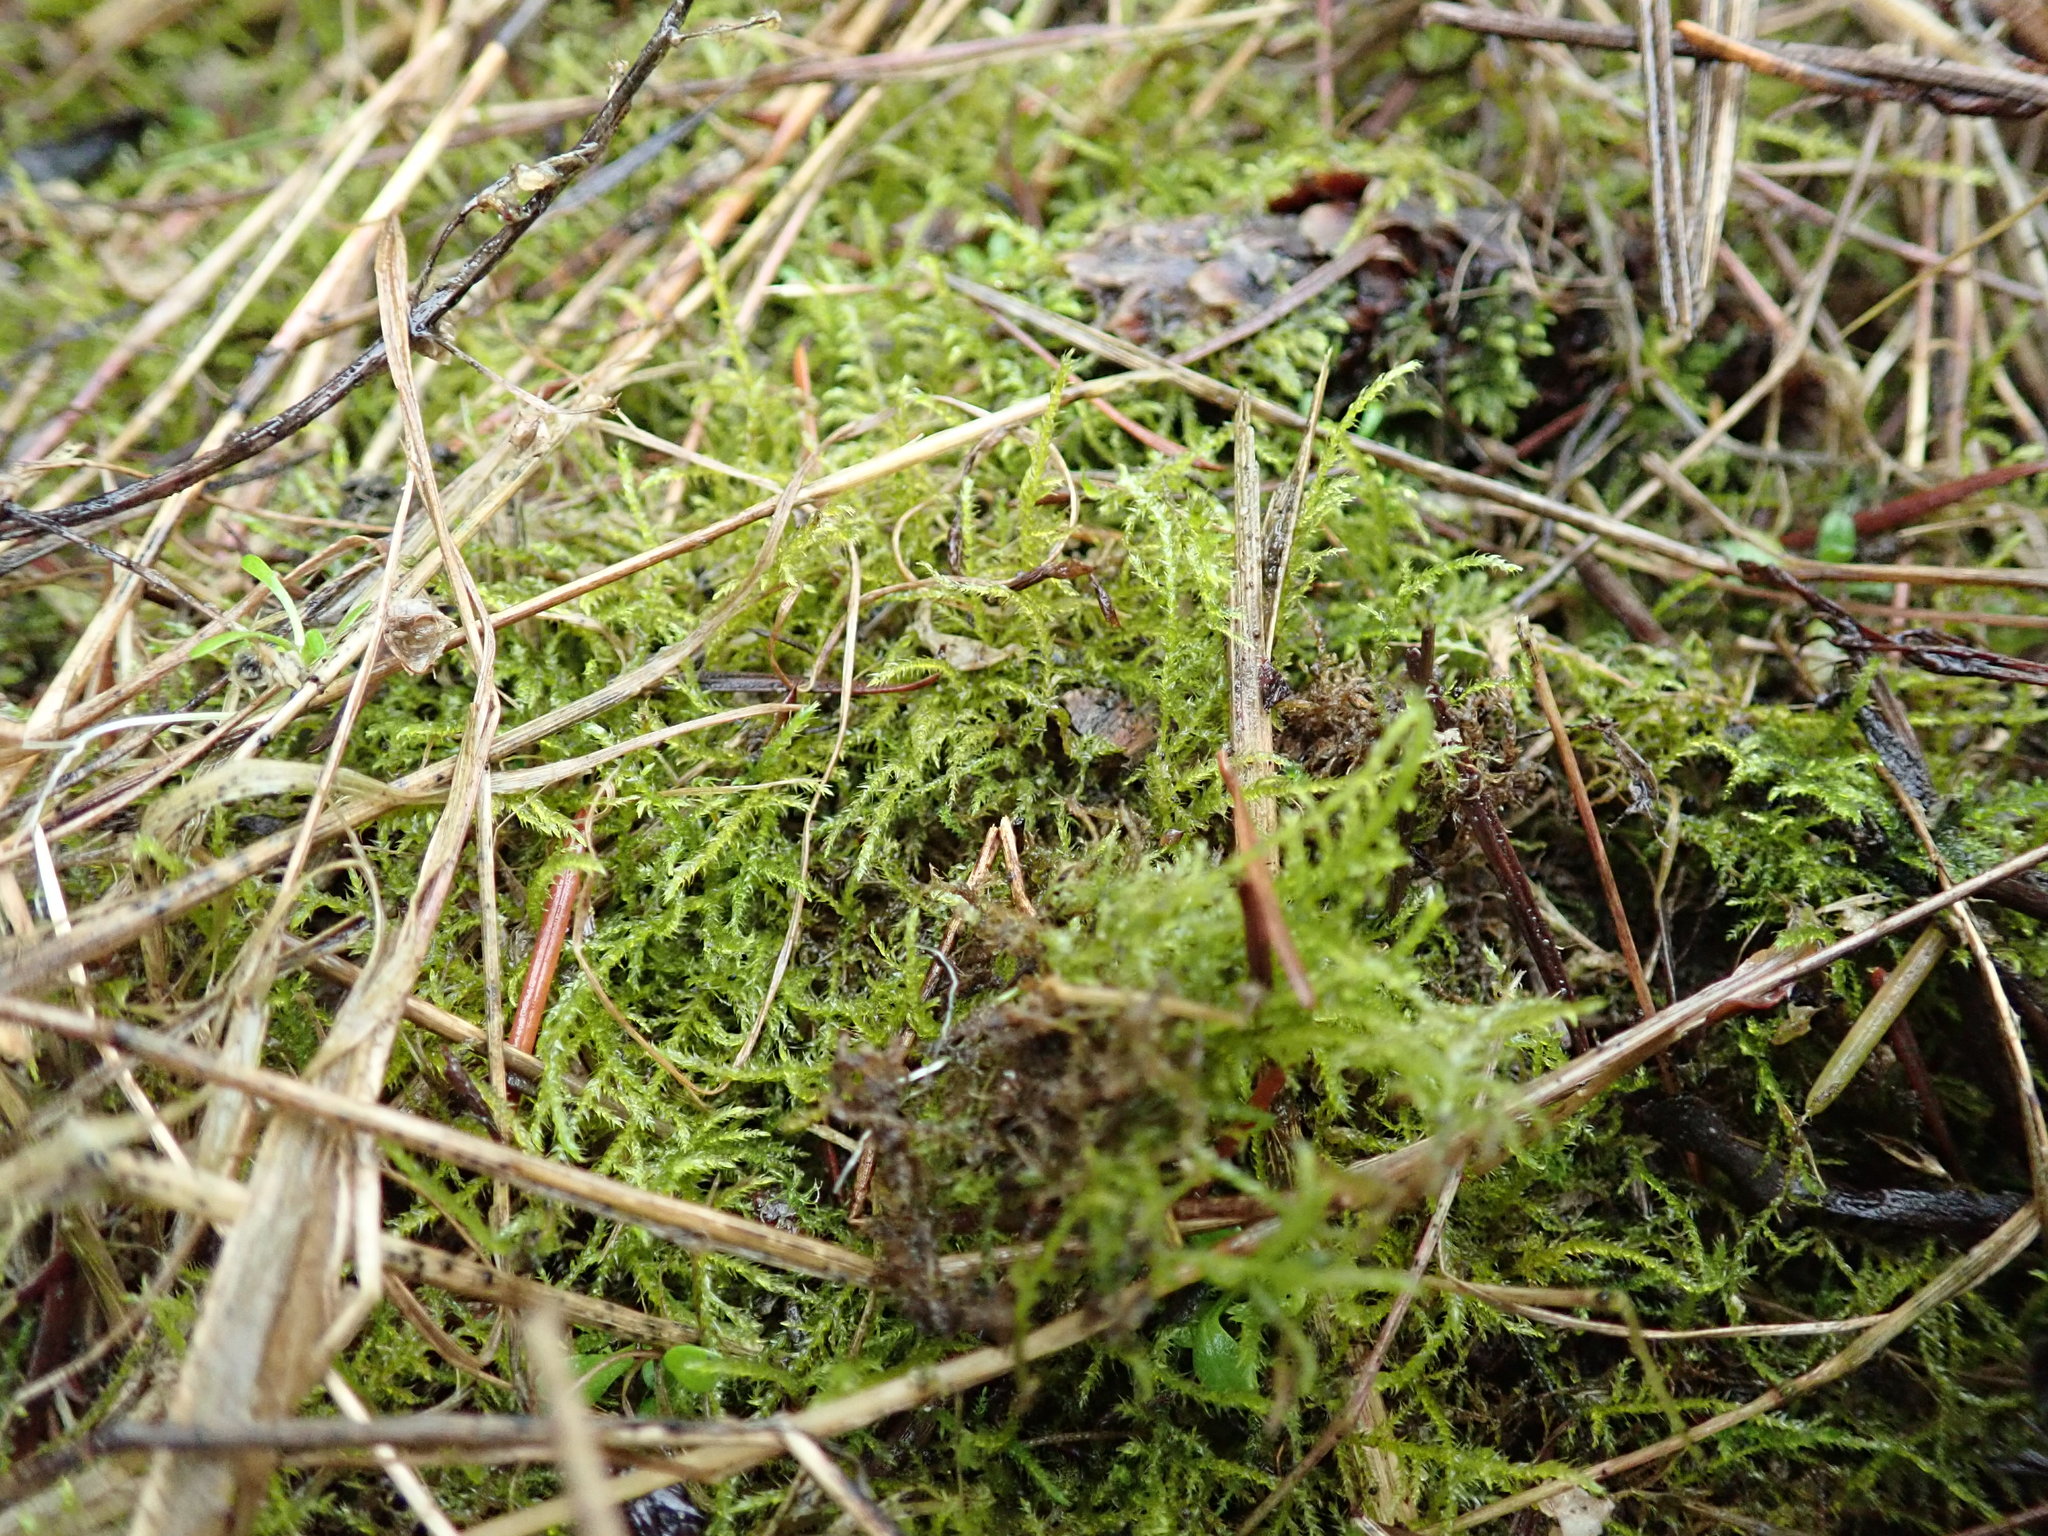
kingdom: Plantae
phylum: Bryophyta
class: Bryopsida
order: Hypnales
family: Brachytheciaceae
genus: Kindbergia
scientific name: Kindbergia praelonga
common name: Slender beaked moss
